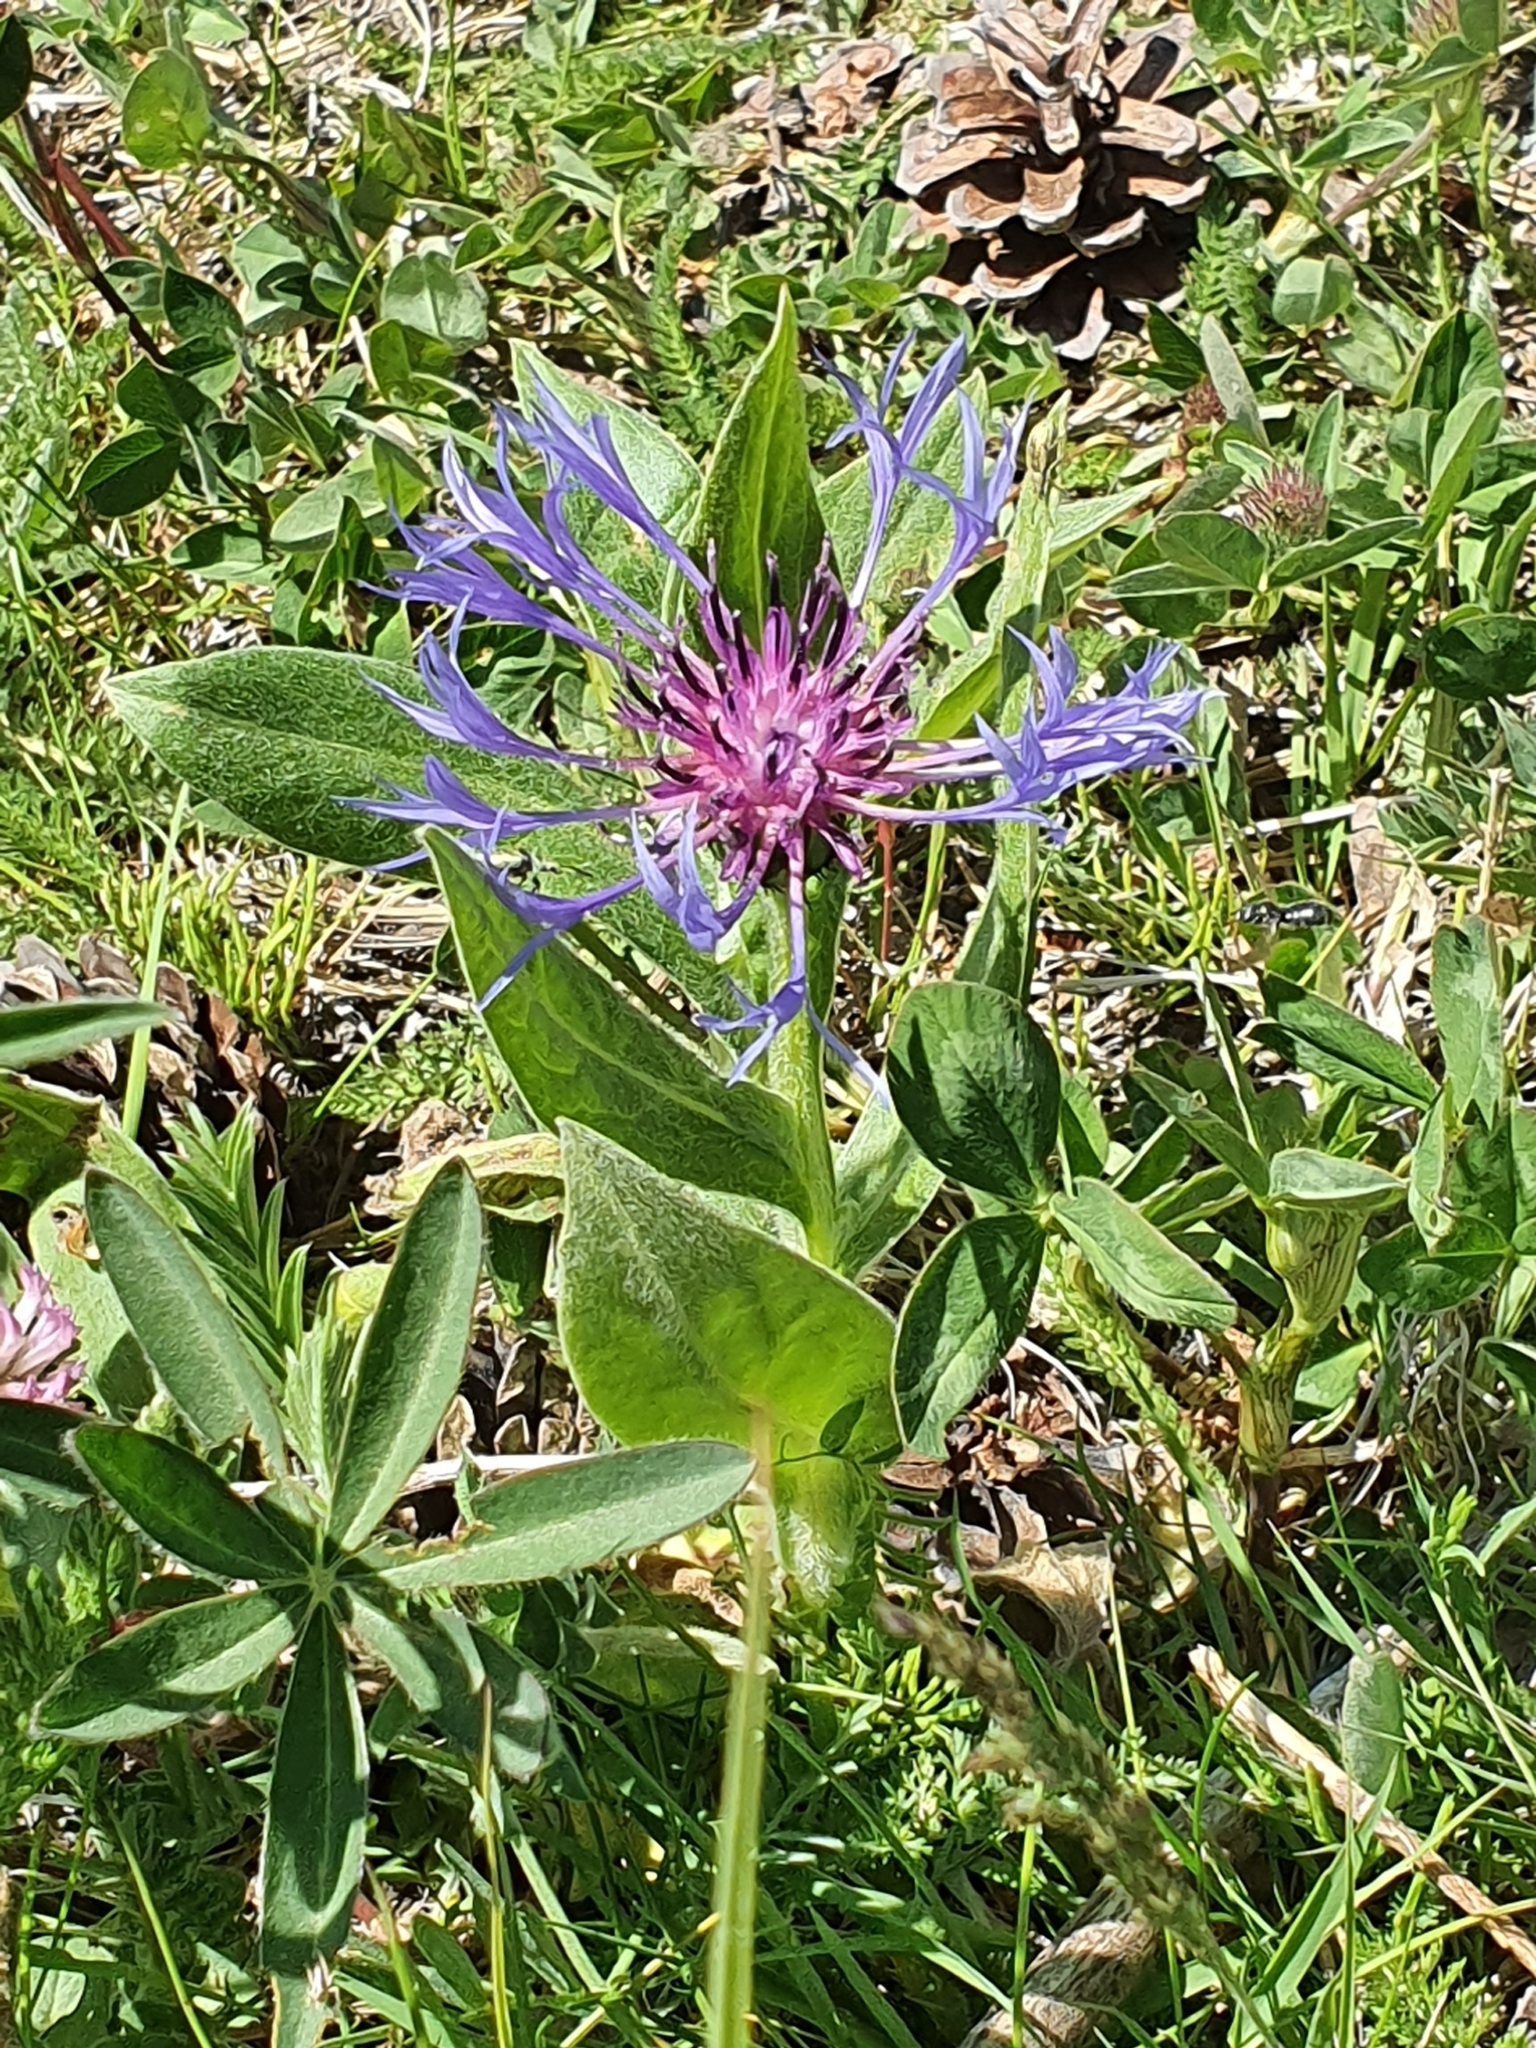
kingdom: Plantae
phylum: Tracheophyta
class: Magnoliopsida
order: Asterales
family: Asteraceae
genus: Centaurea
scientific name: Centaurea montana
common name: Perennial cornflower
